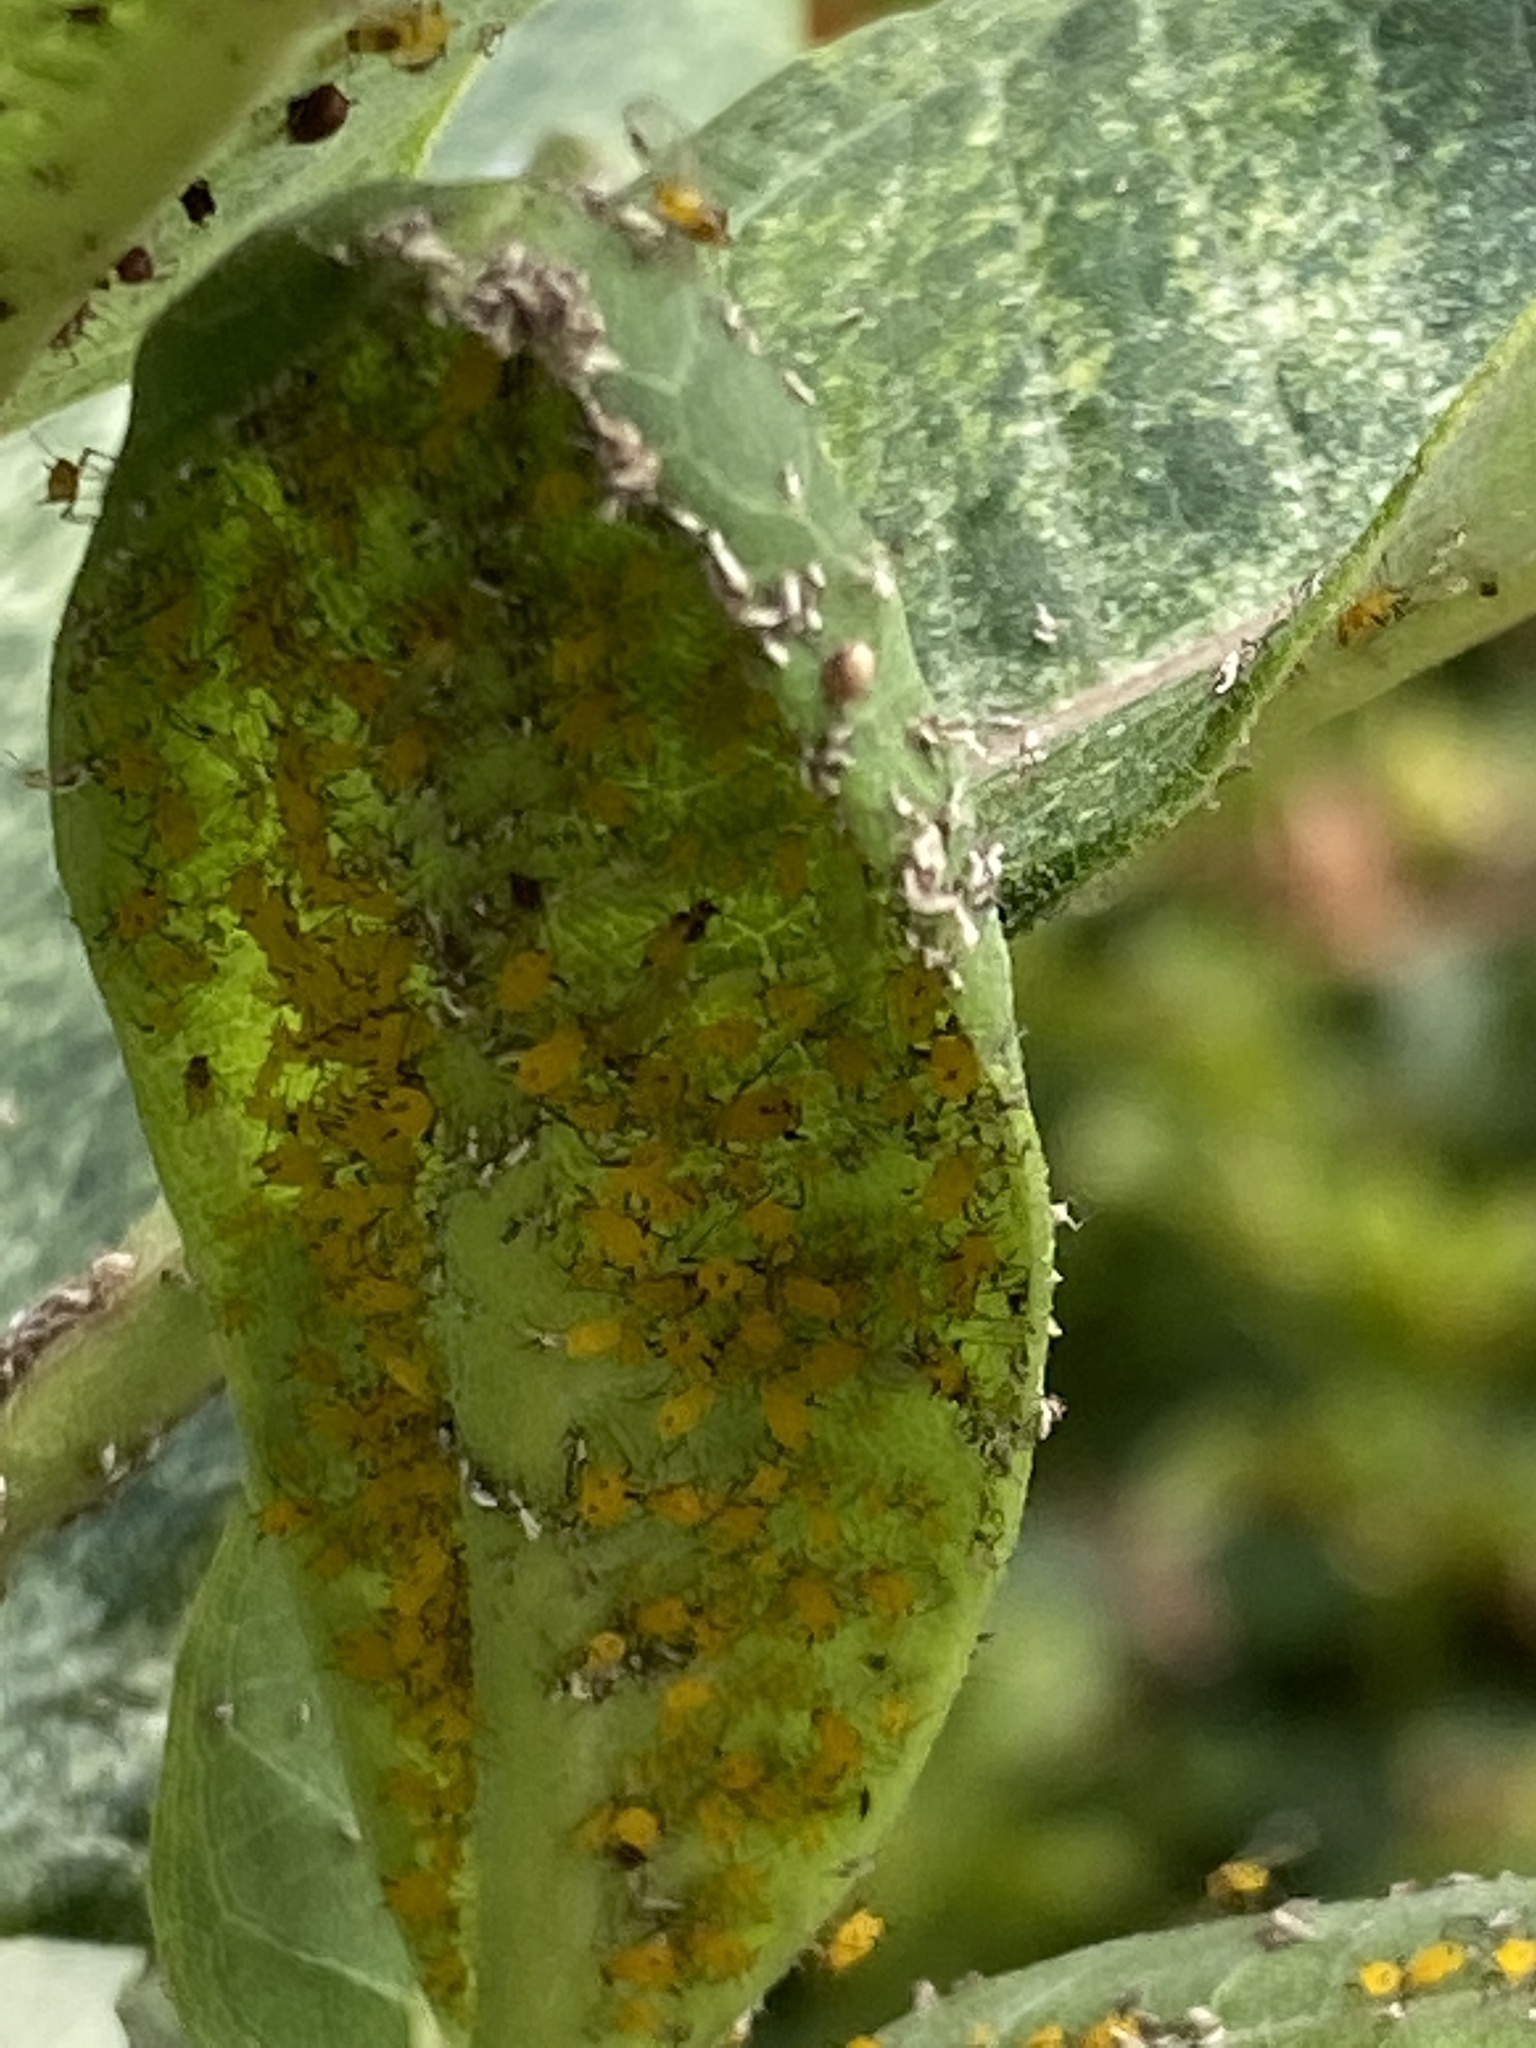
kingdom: Animalia
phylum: Arthropoda
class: Insecta
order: Hemiptera
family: Aphididae
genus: Aphis
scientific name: Aphis nerii
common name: Oleander aphid
